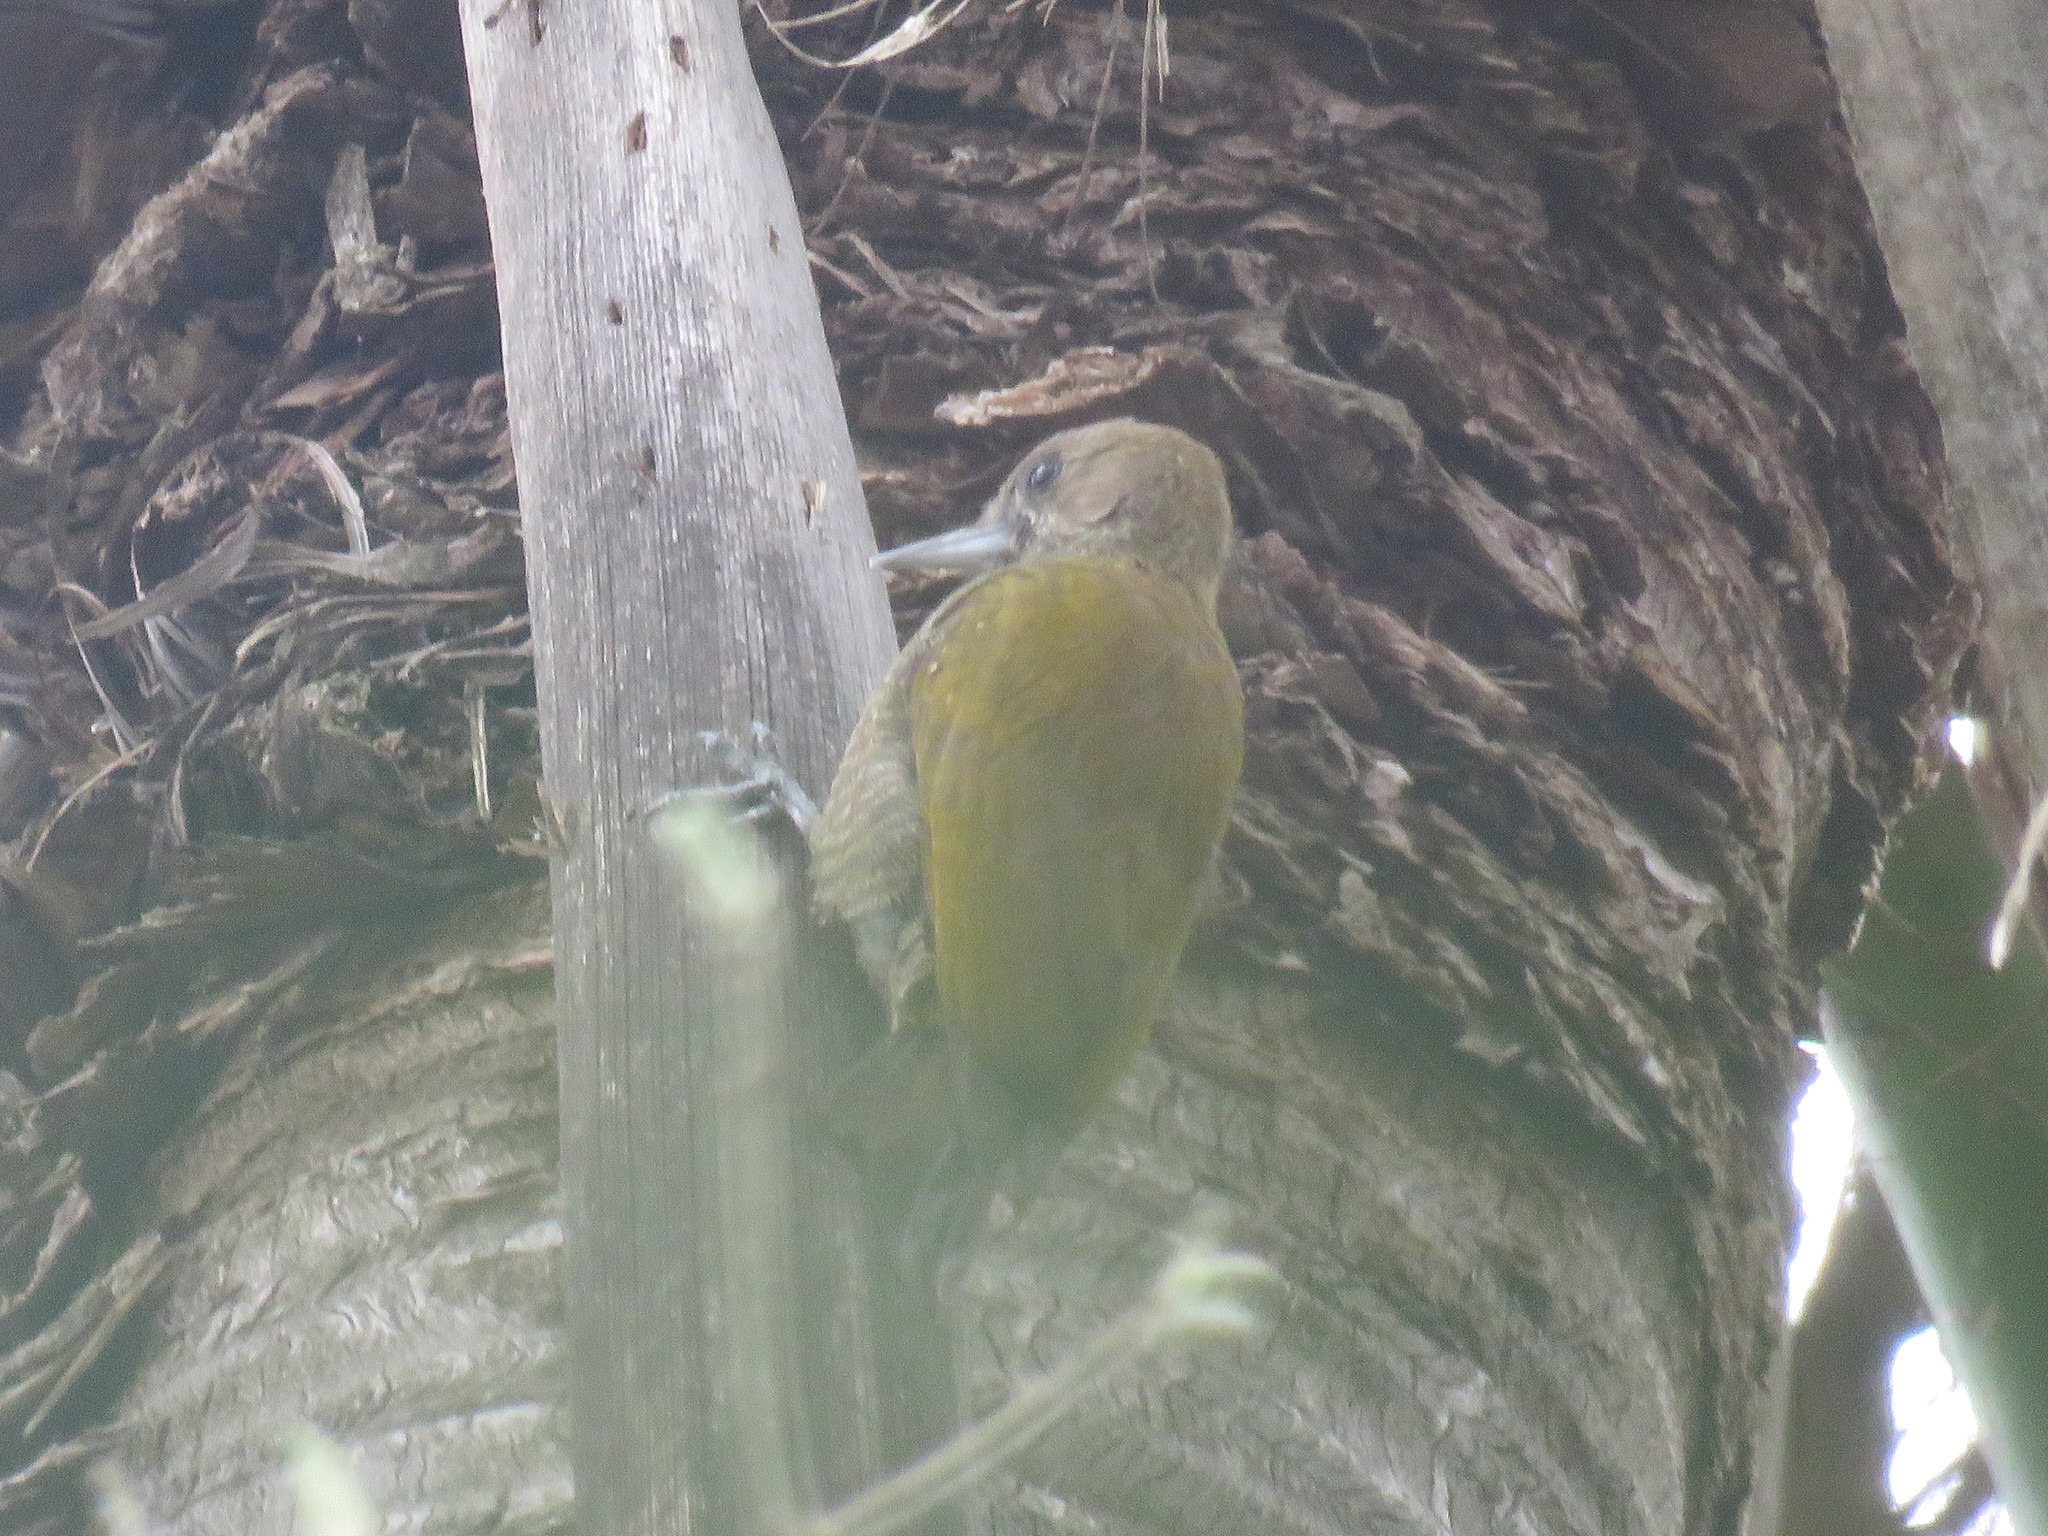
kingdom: Animalia
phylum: Chordata
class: Aves
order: Piciformes
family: Picidae
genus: Veniliornis
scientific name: Veniliornis passerinus
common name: Little woodpecker
